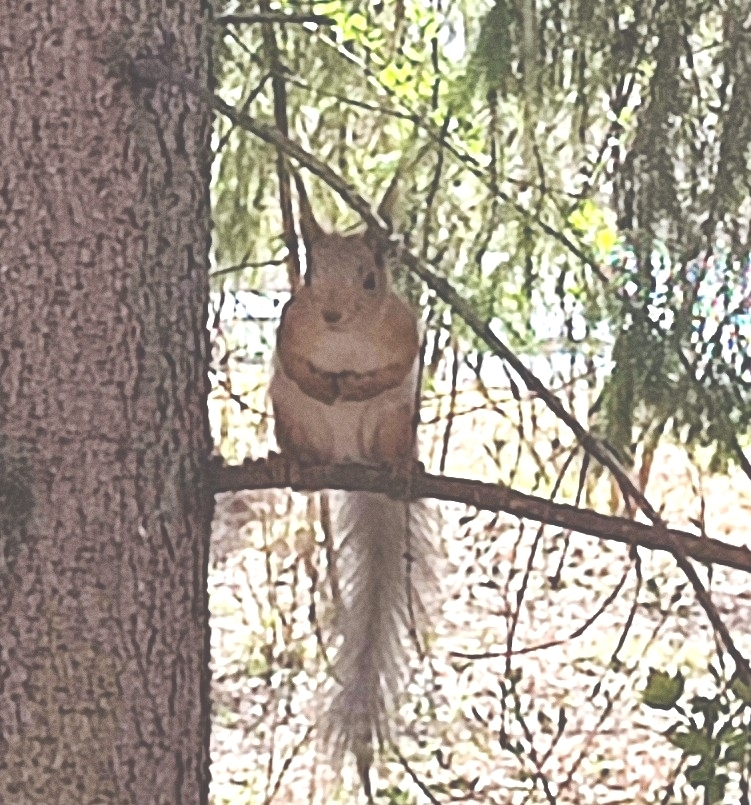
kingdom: Animalia
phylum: Chordata
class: Mammalia
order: Rodentia
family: Sciuridae
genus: Sciurus
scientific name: Sciurus vulgaris
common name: Eurasian red squirrel
